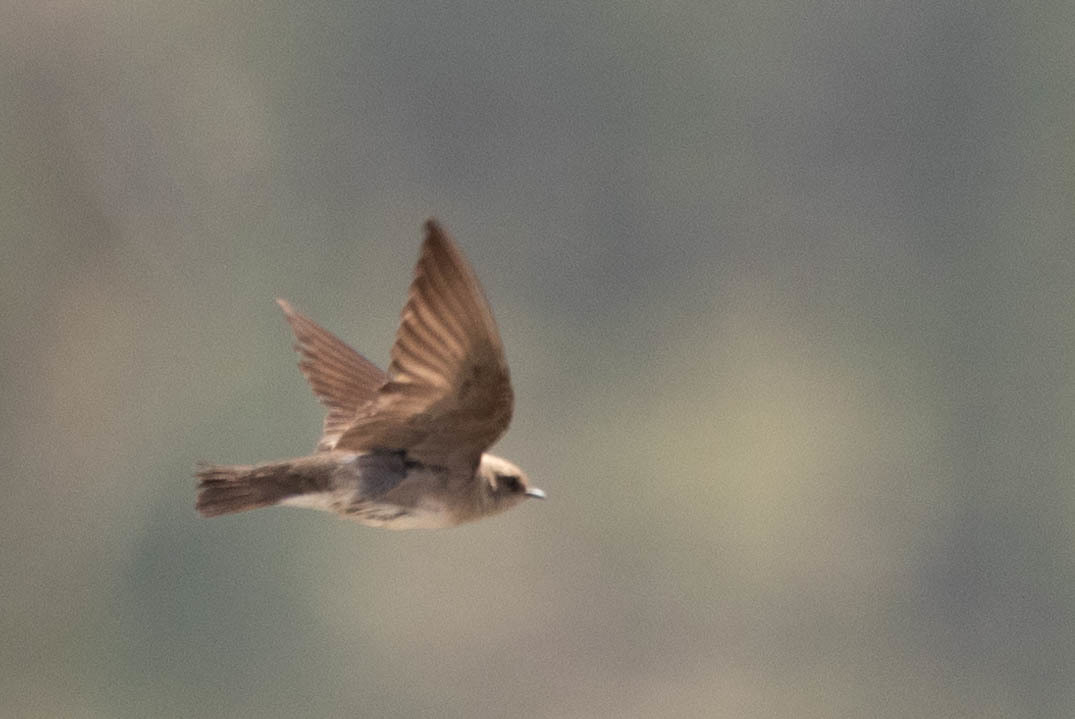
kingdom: Animalia
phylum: Chordata
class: Aves
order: Passeriformes
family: Hirundinidae
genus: Stelgidopteryx
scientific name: Stelgidopteryx serripennis
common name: Northern rough-winged swallow
